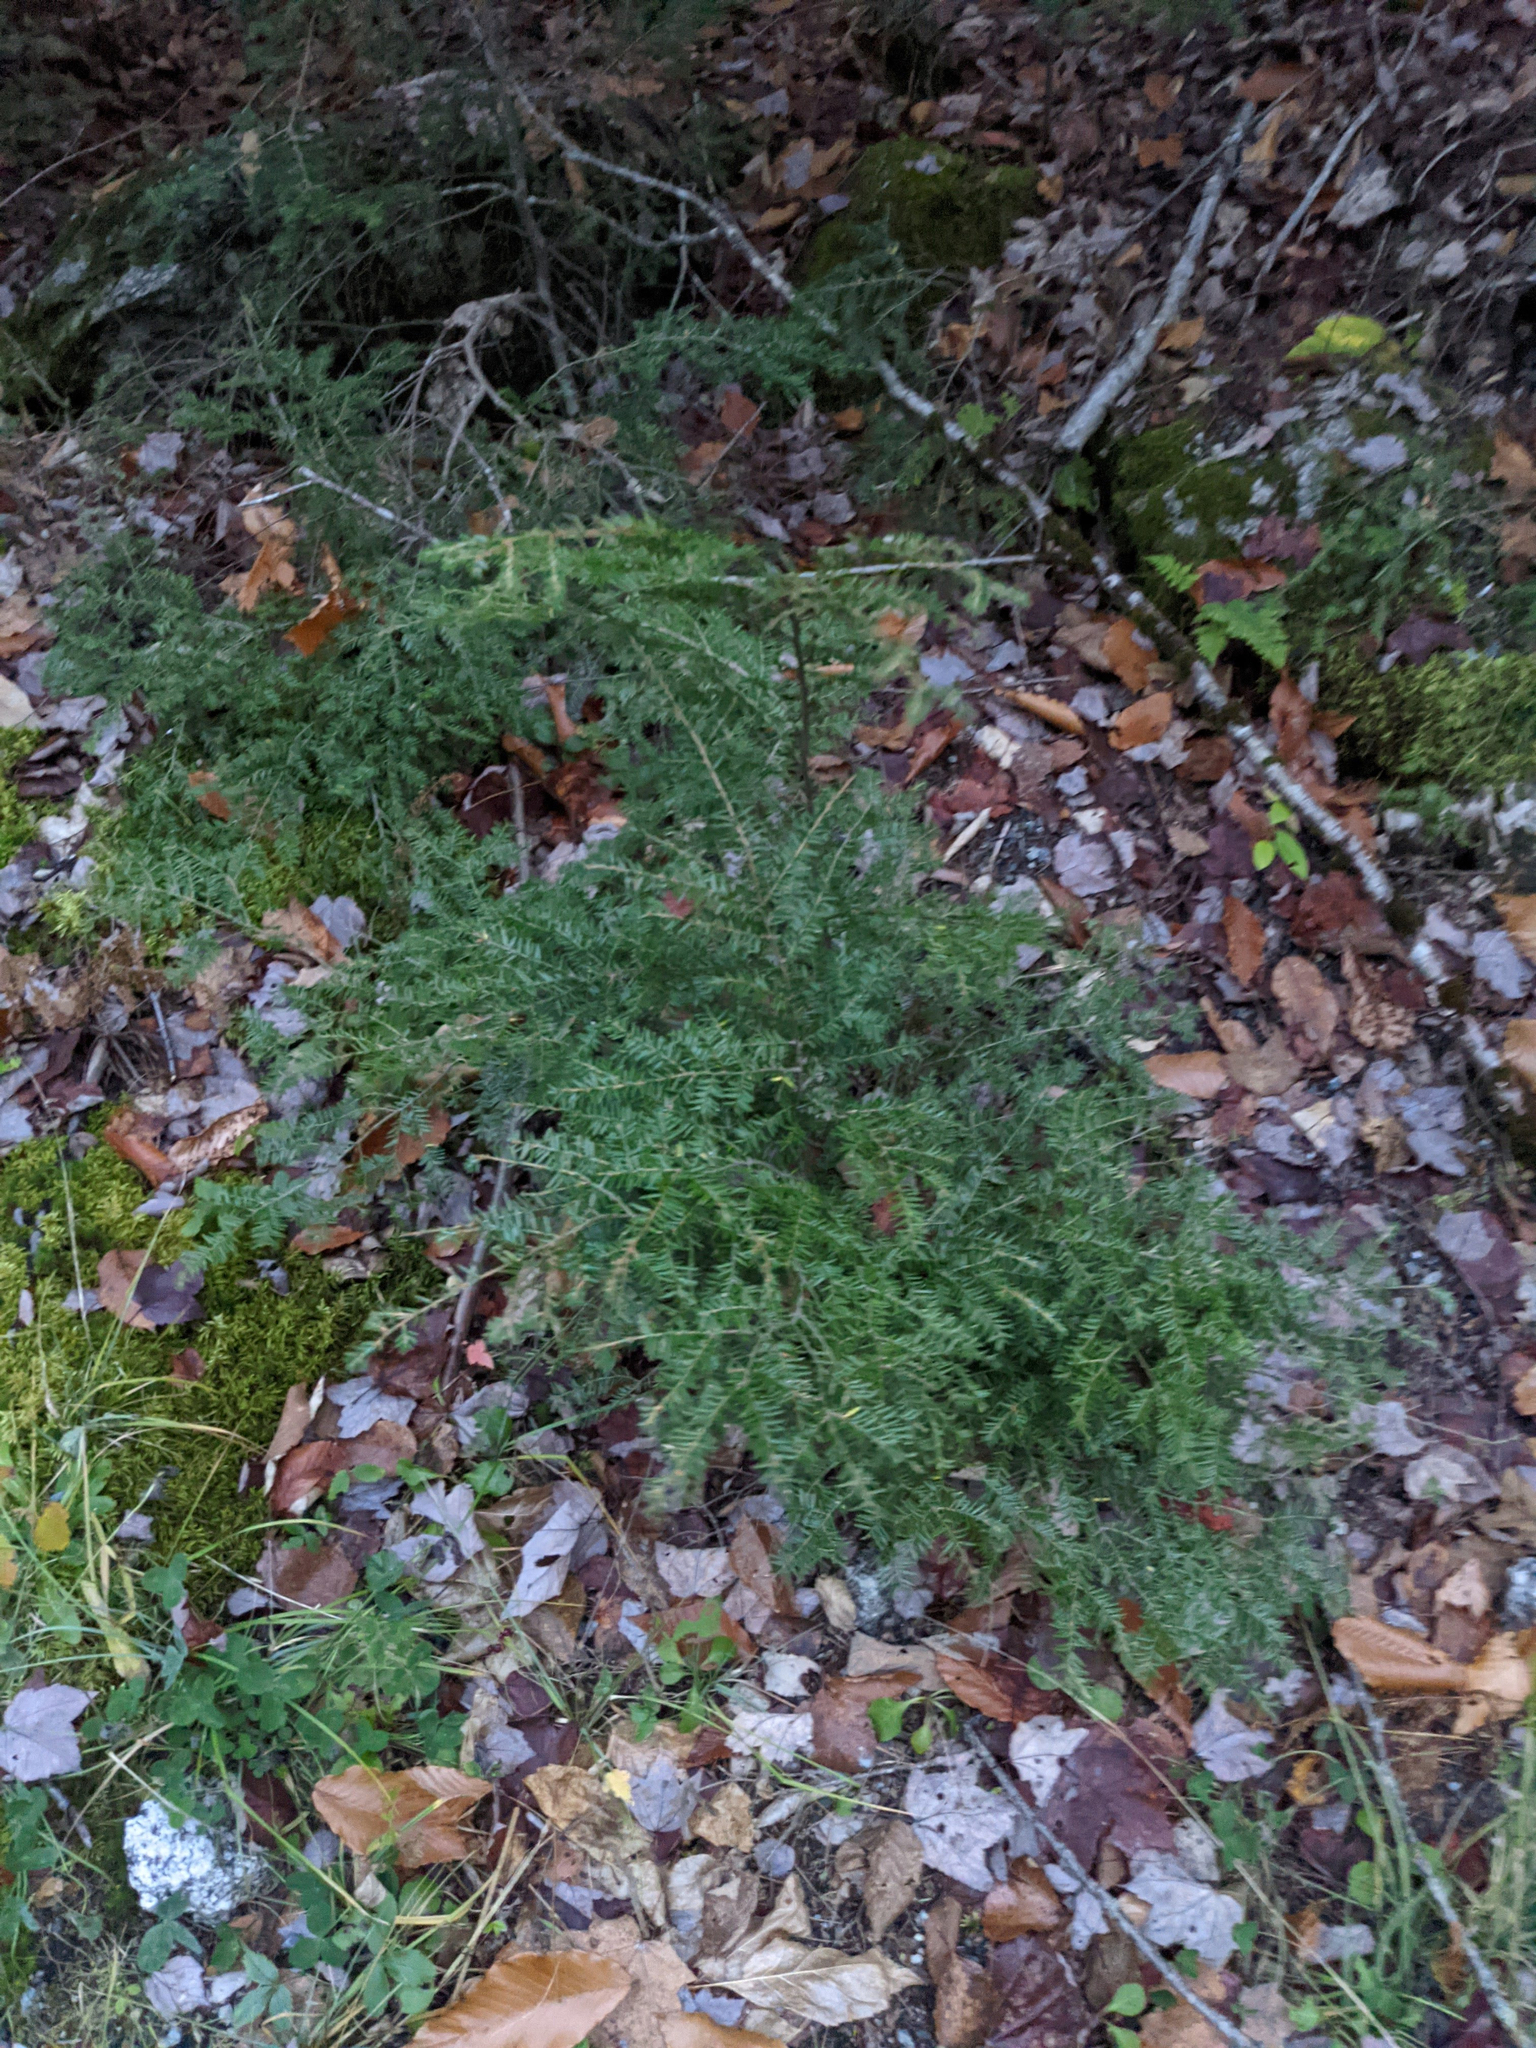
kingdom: Plantae
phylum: Tracheophyta
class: Pinopsida
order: Pinales
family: Pinaceae
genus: Tsuga
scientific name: Tsuga canadensis
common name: Eastern hemlock
